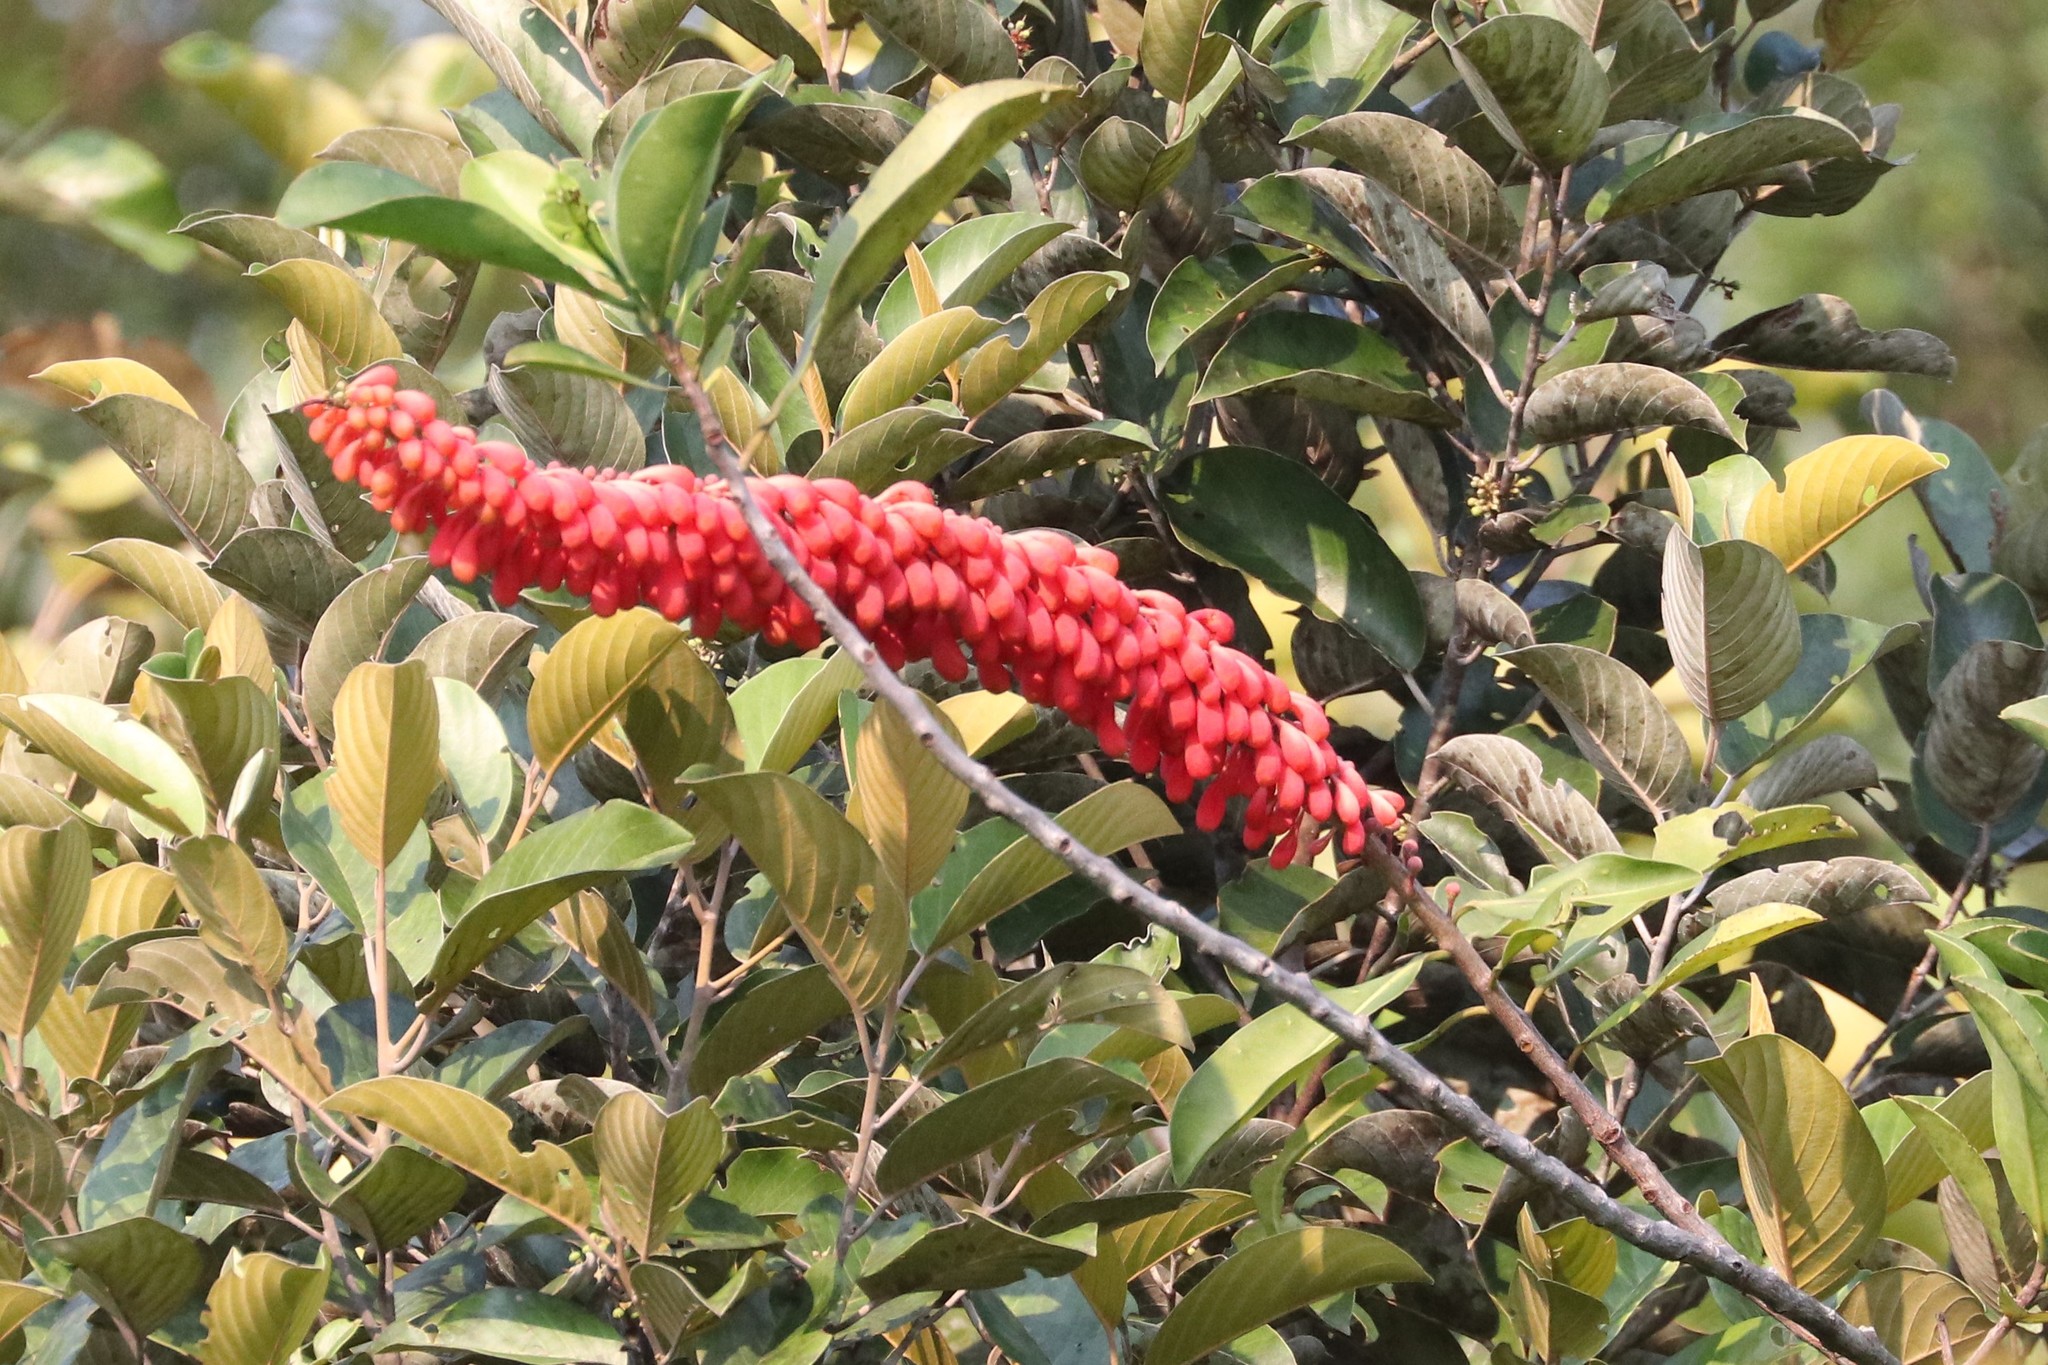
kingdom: Plantae
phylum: Tracheophyta
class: Magnoliopsida
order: Ericales
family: Marcgraviaceae
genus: Norantea
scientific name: Norantea guianensis
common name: Red hot poker vine
